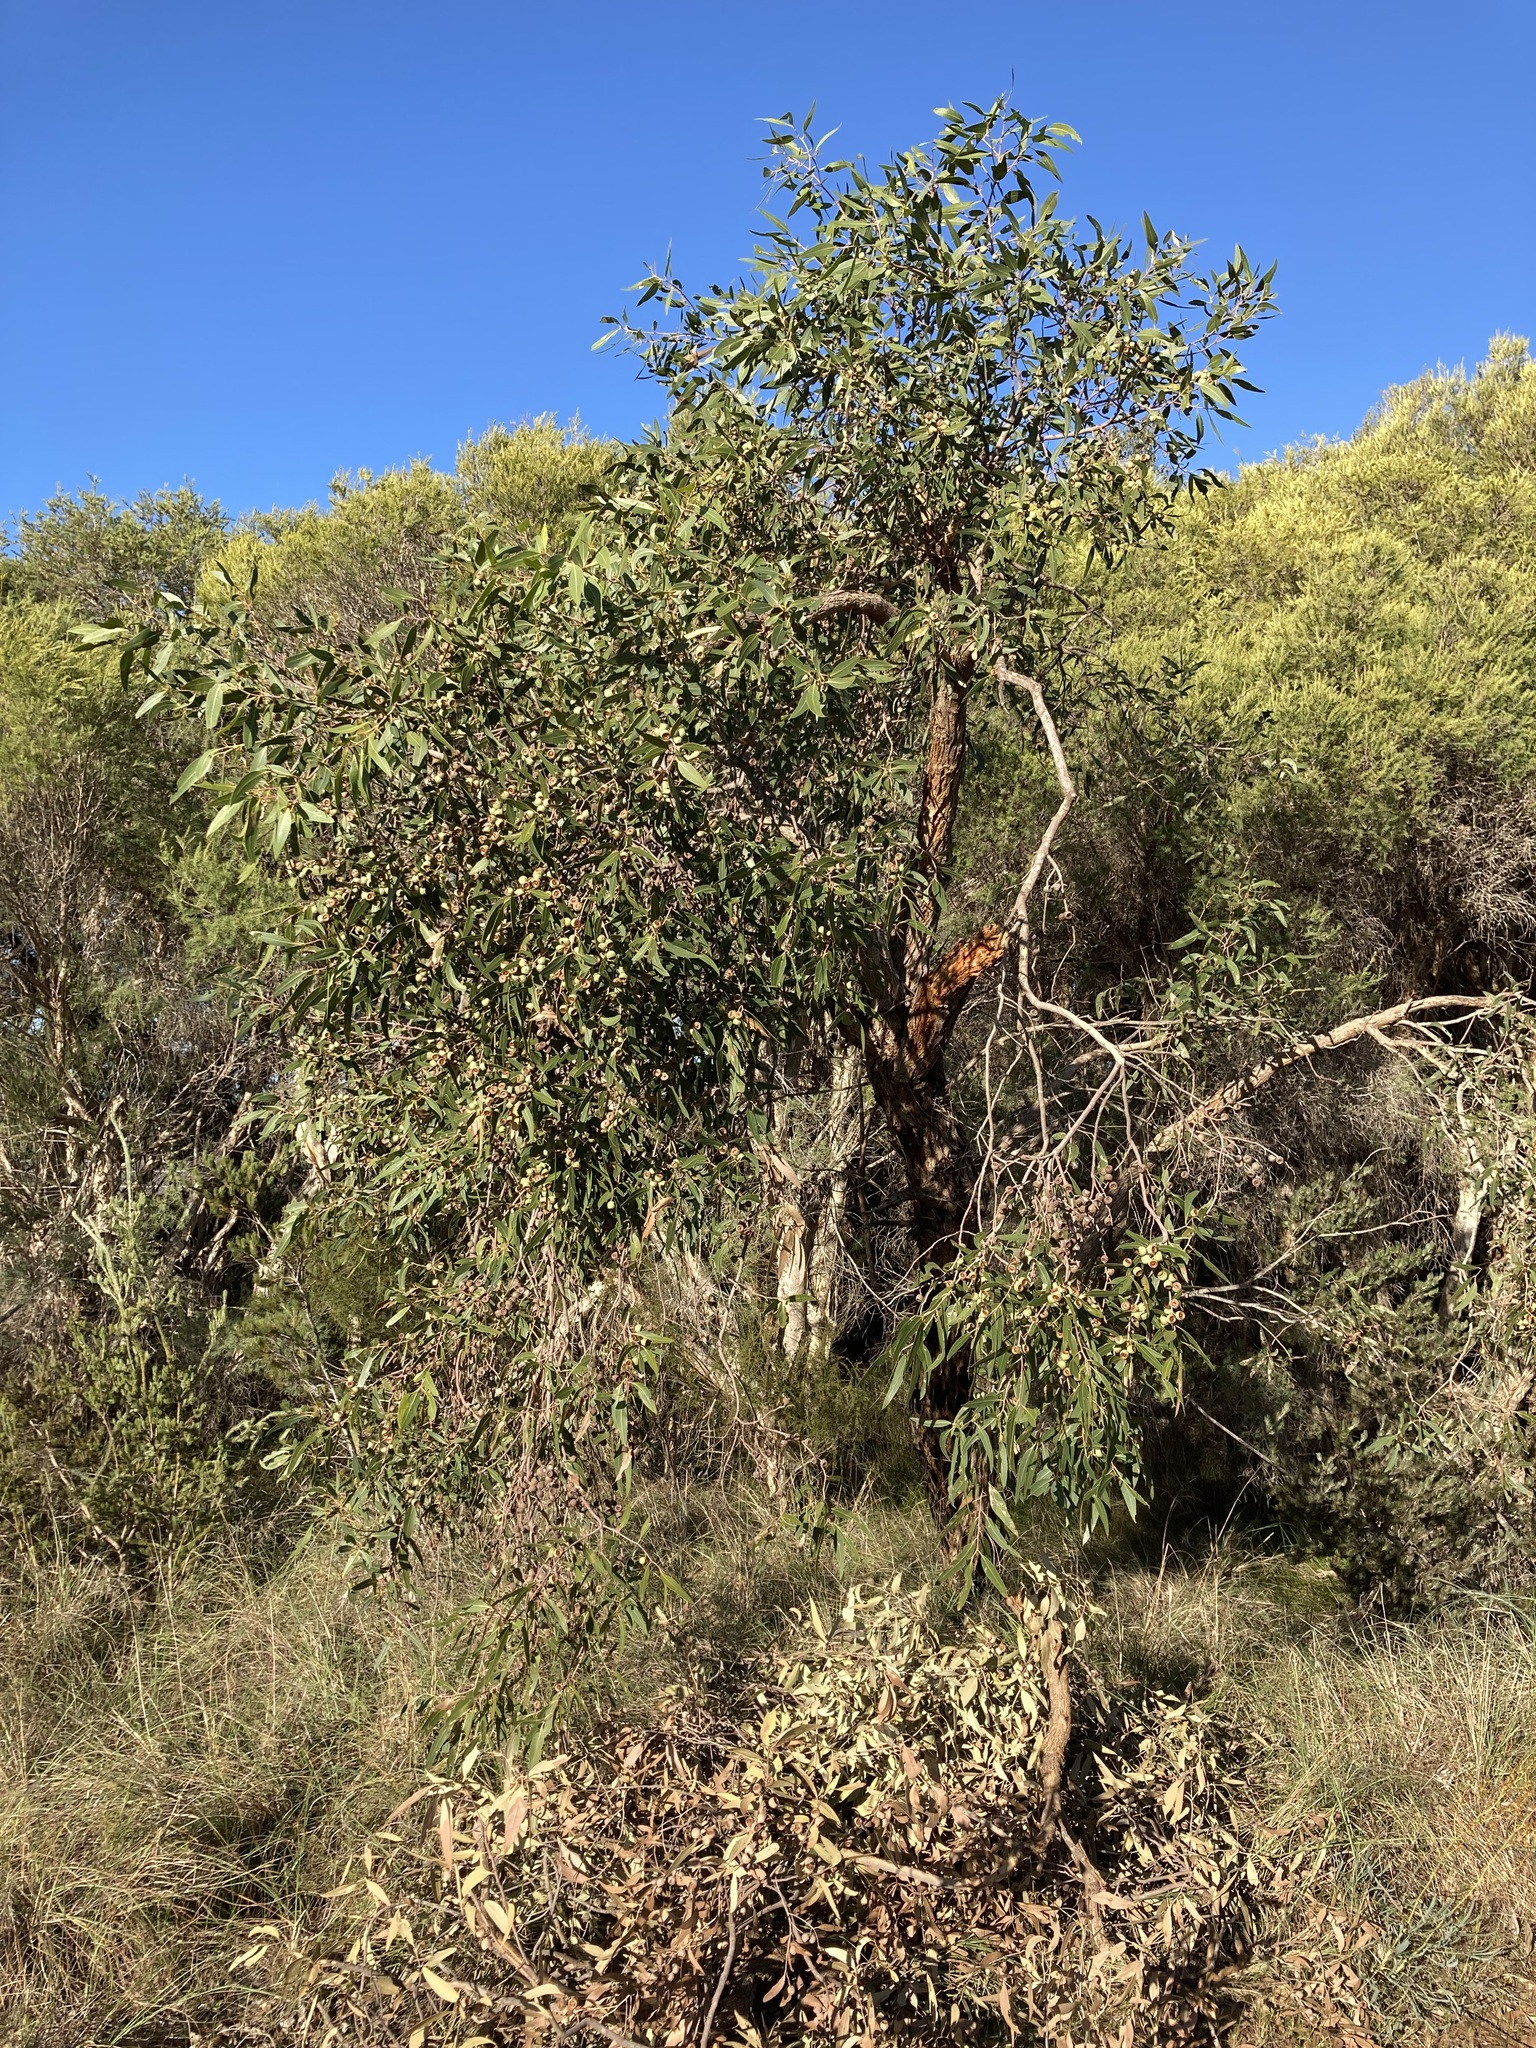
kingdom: Plantae
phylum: Tracheophyta
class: Magnoliopsida
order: Myrtales
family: Myrtaceae
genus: Eucalyptus
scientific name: Eucalyptus todtiana
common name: Coastal blackbutt
